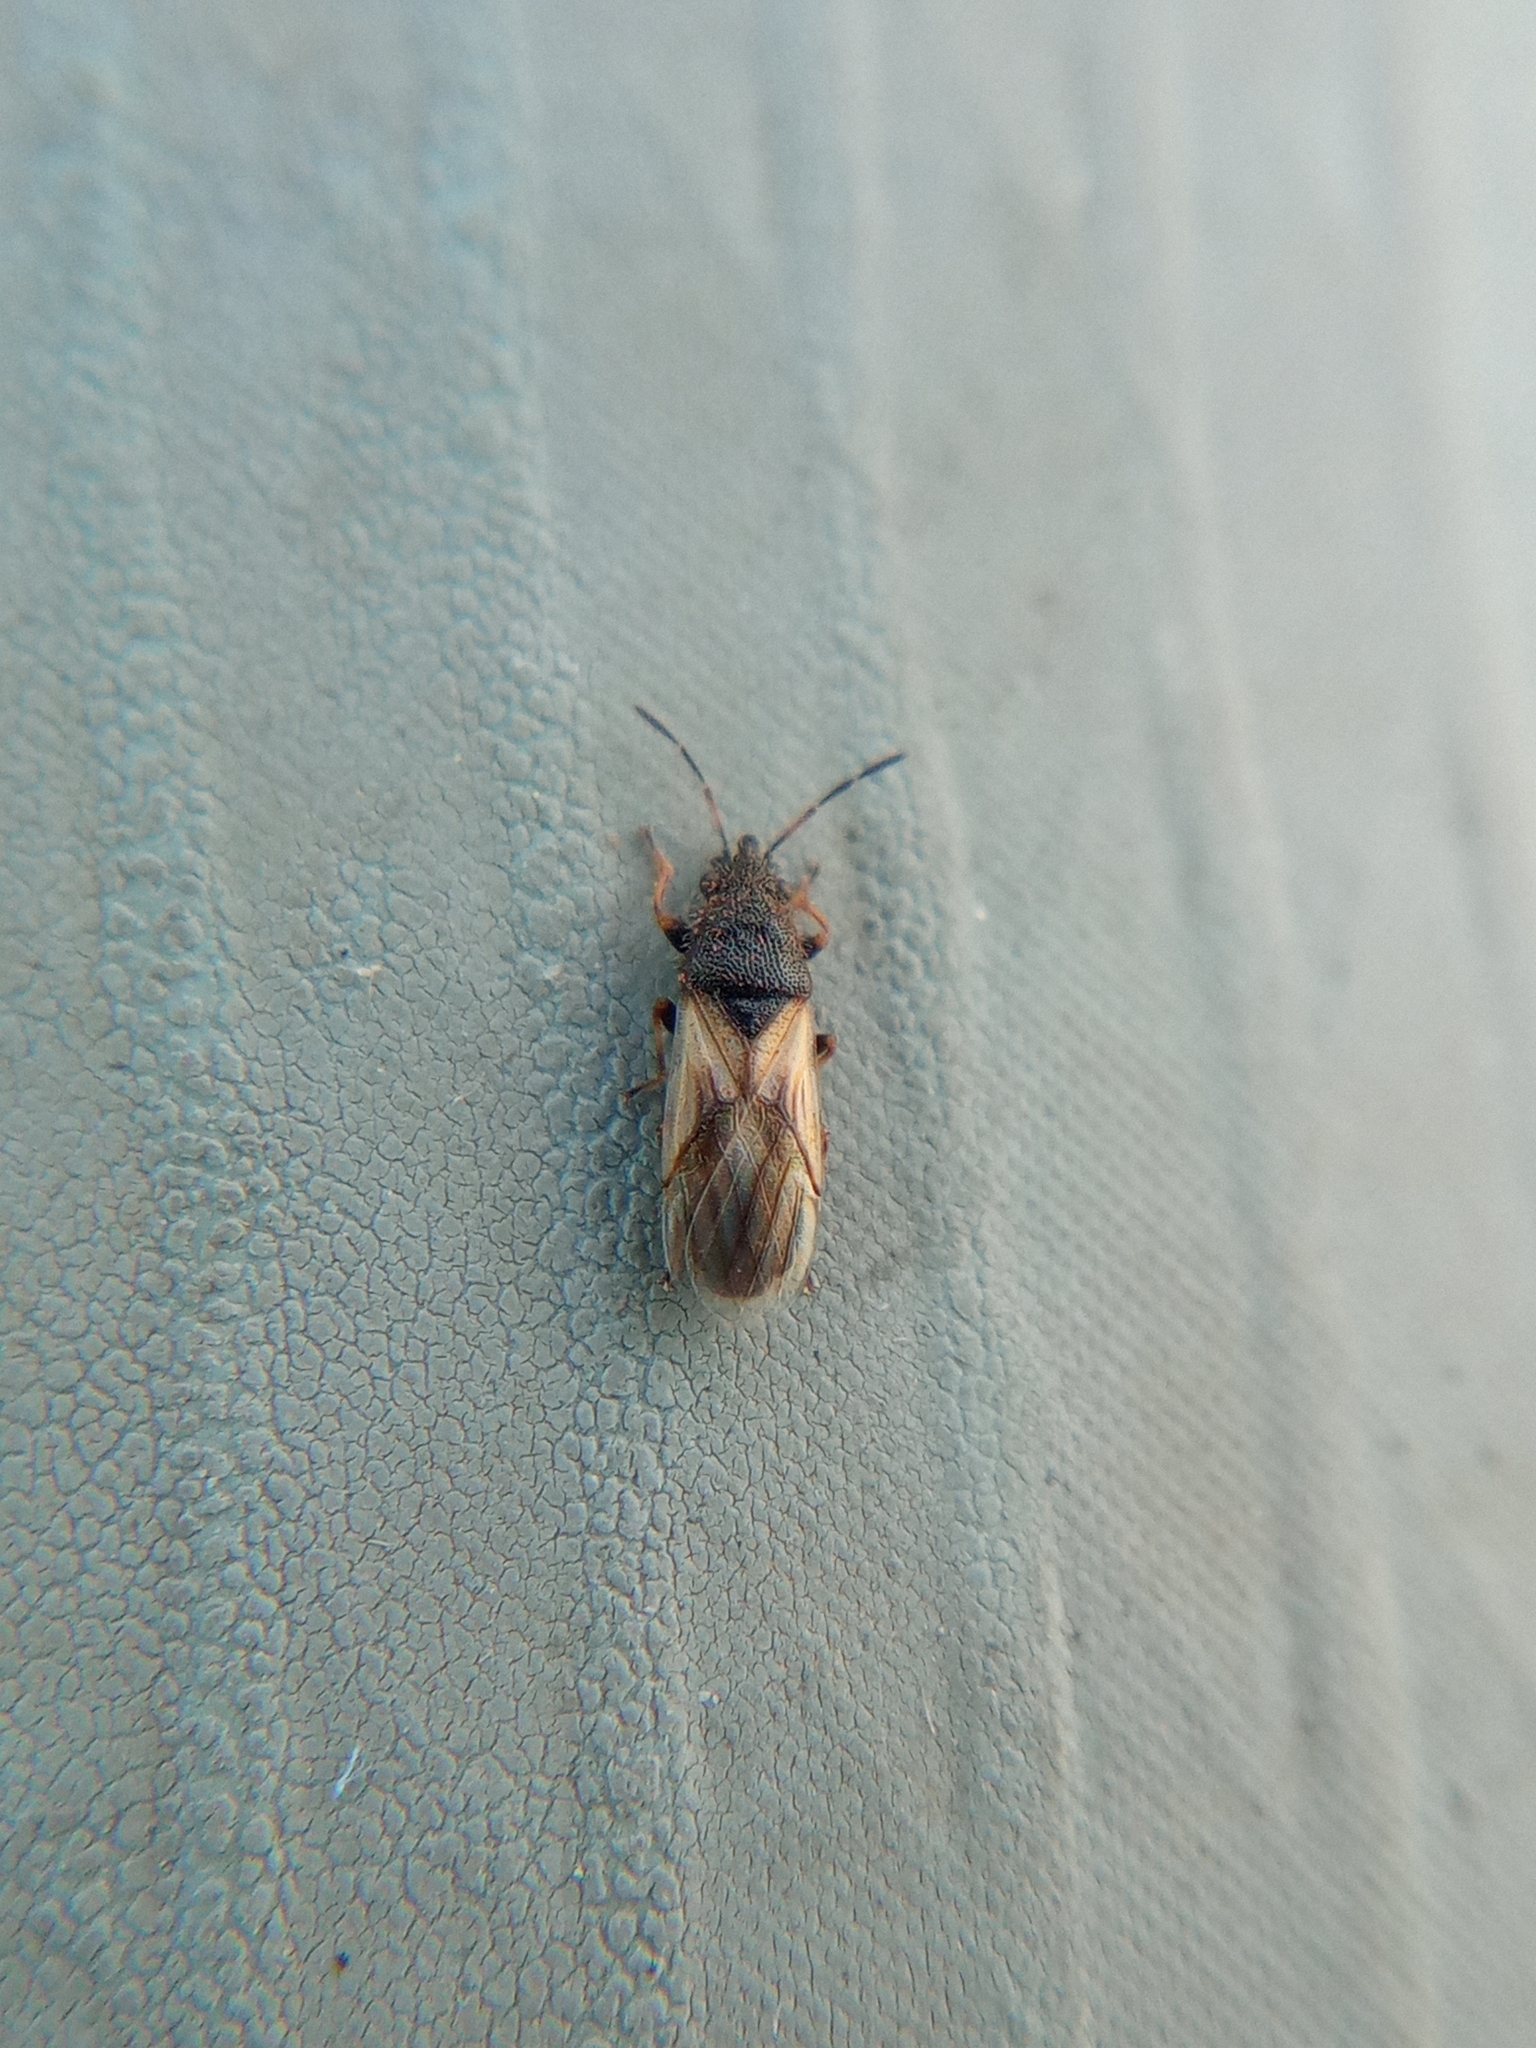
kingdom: Animalia
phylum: Arthropoda
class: Insecta
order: Hemiptera
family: Oxycarenidae
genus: Metopoplax
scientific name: Metopoplax ditomoides
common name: Seed bug
